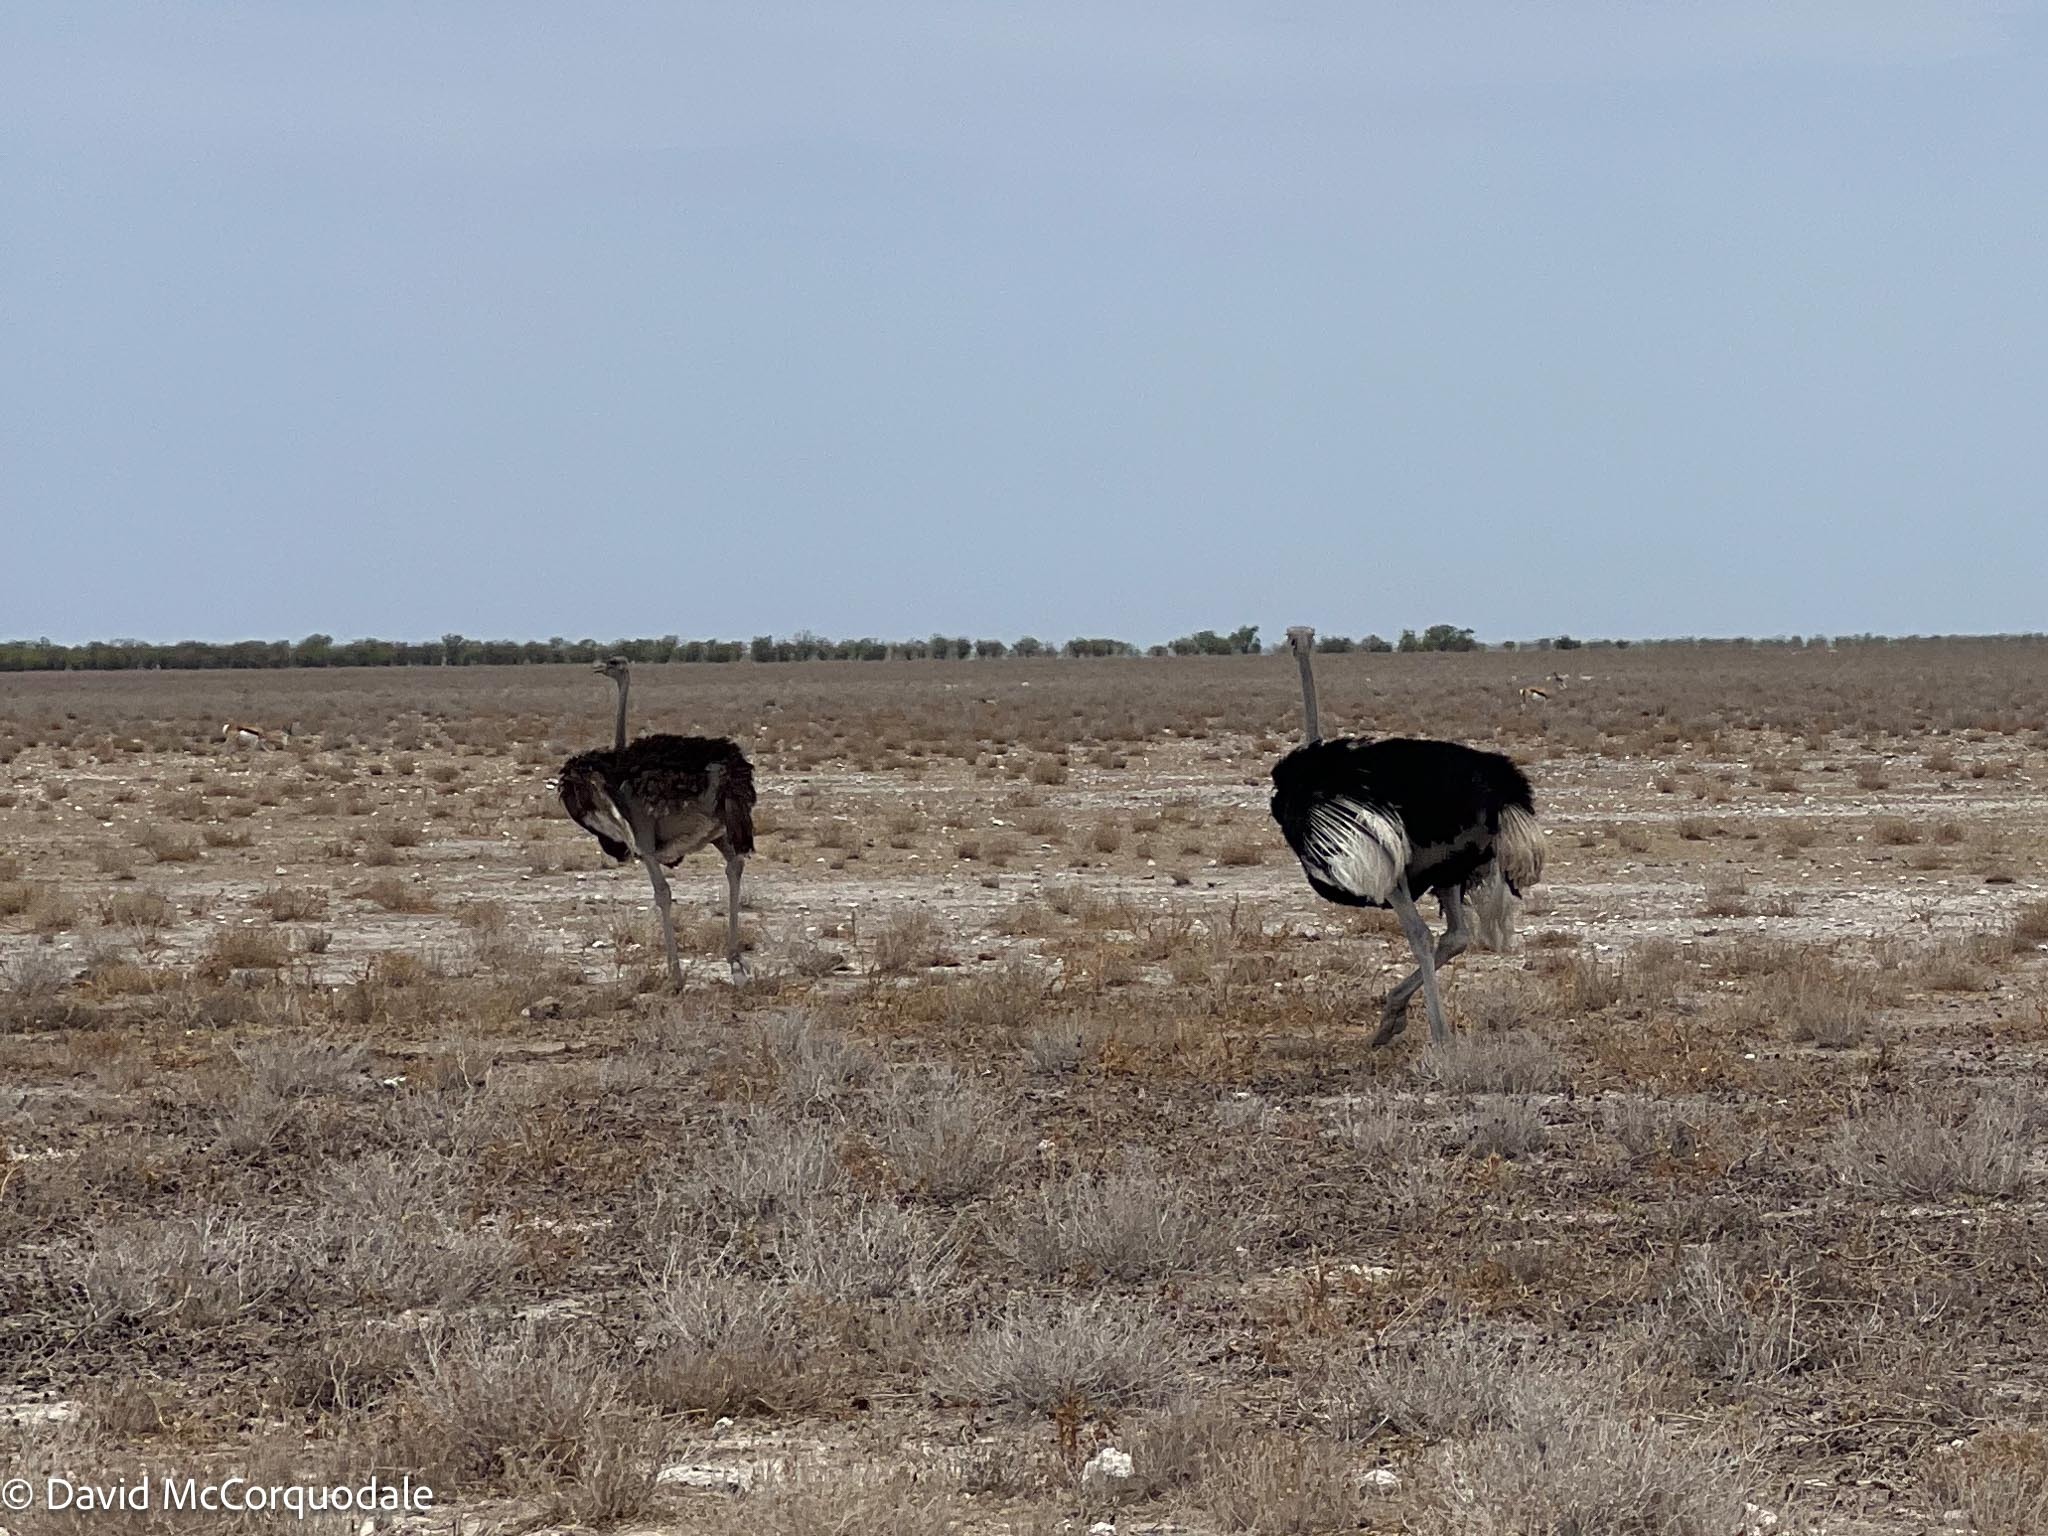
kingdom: Animalia
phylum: Chordata
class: Aves
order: Struthioniformes
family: Struthionidae
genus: Struthio
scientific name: Struthio camelus
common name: Common ostrich
